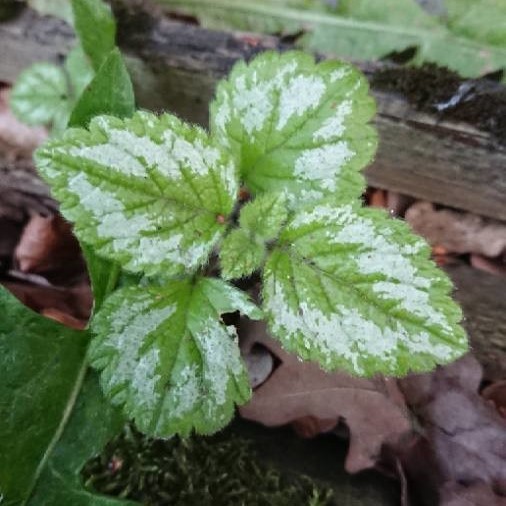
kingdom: Plantae
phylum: Tracheophyta
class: Magnoliopsida
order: Lamiales
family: Lamiaceae
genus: Lamium
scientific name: Lamium galeobdolon
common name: Yellow archangel
